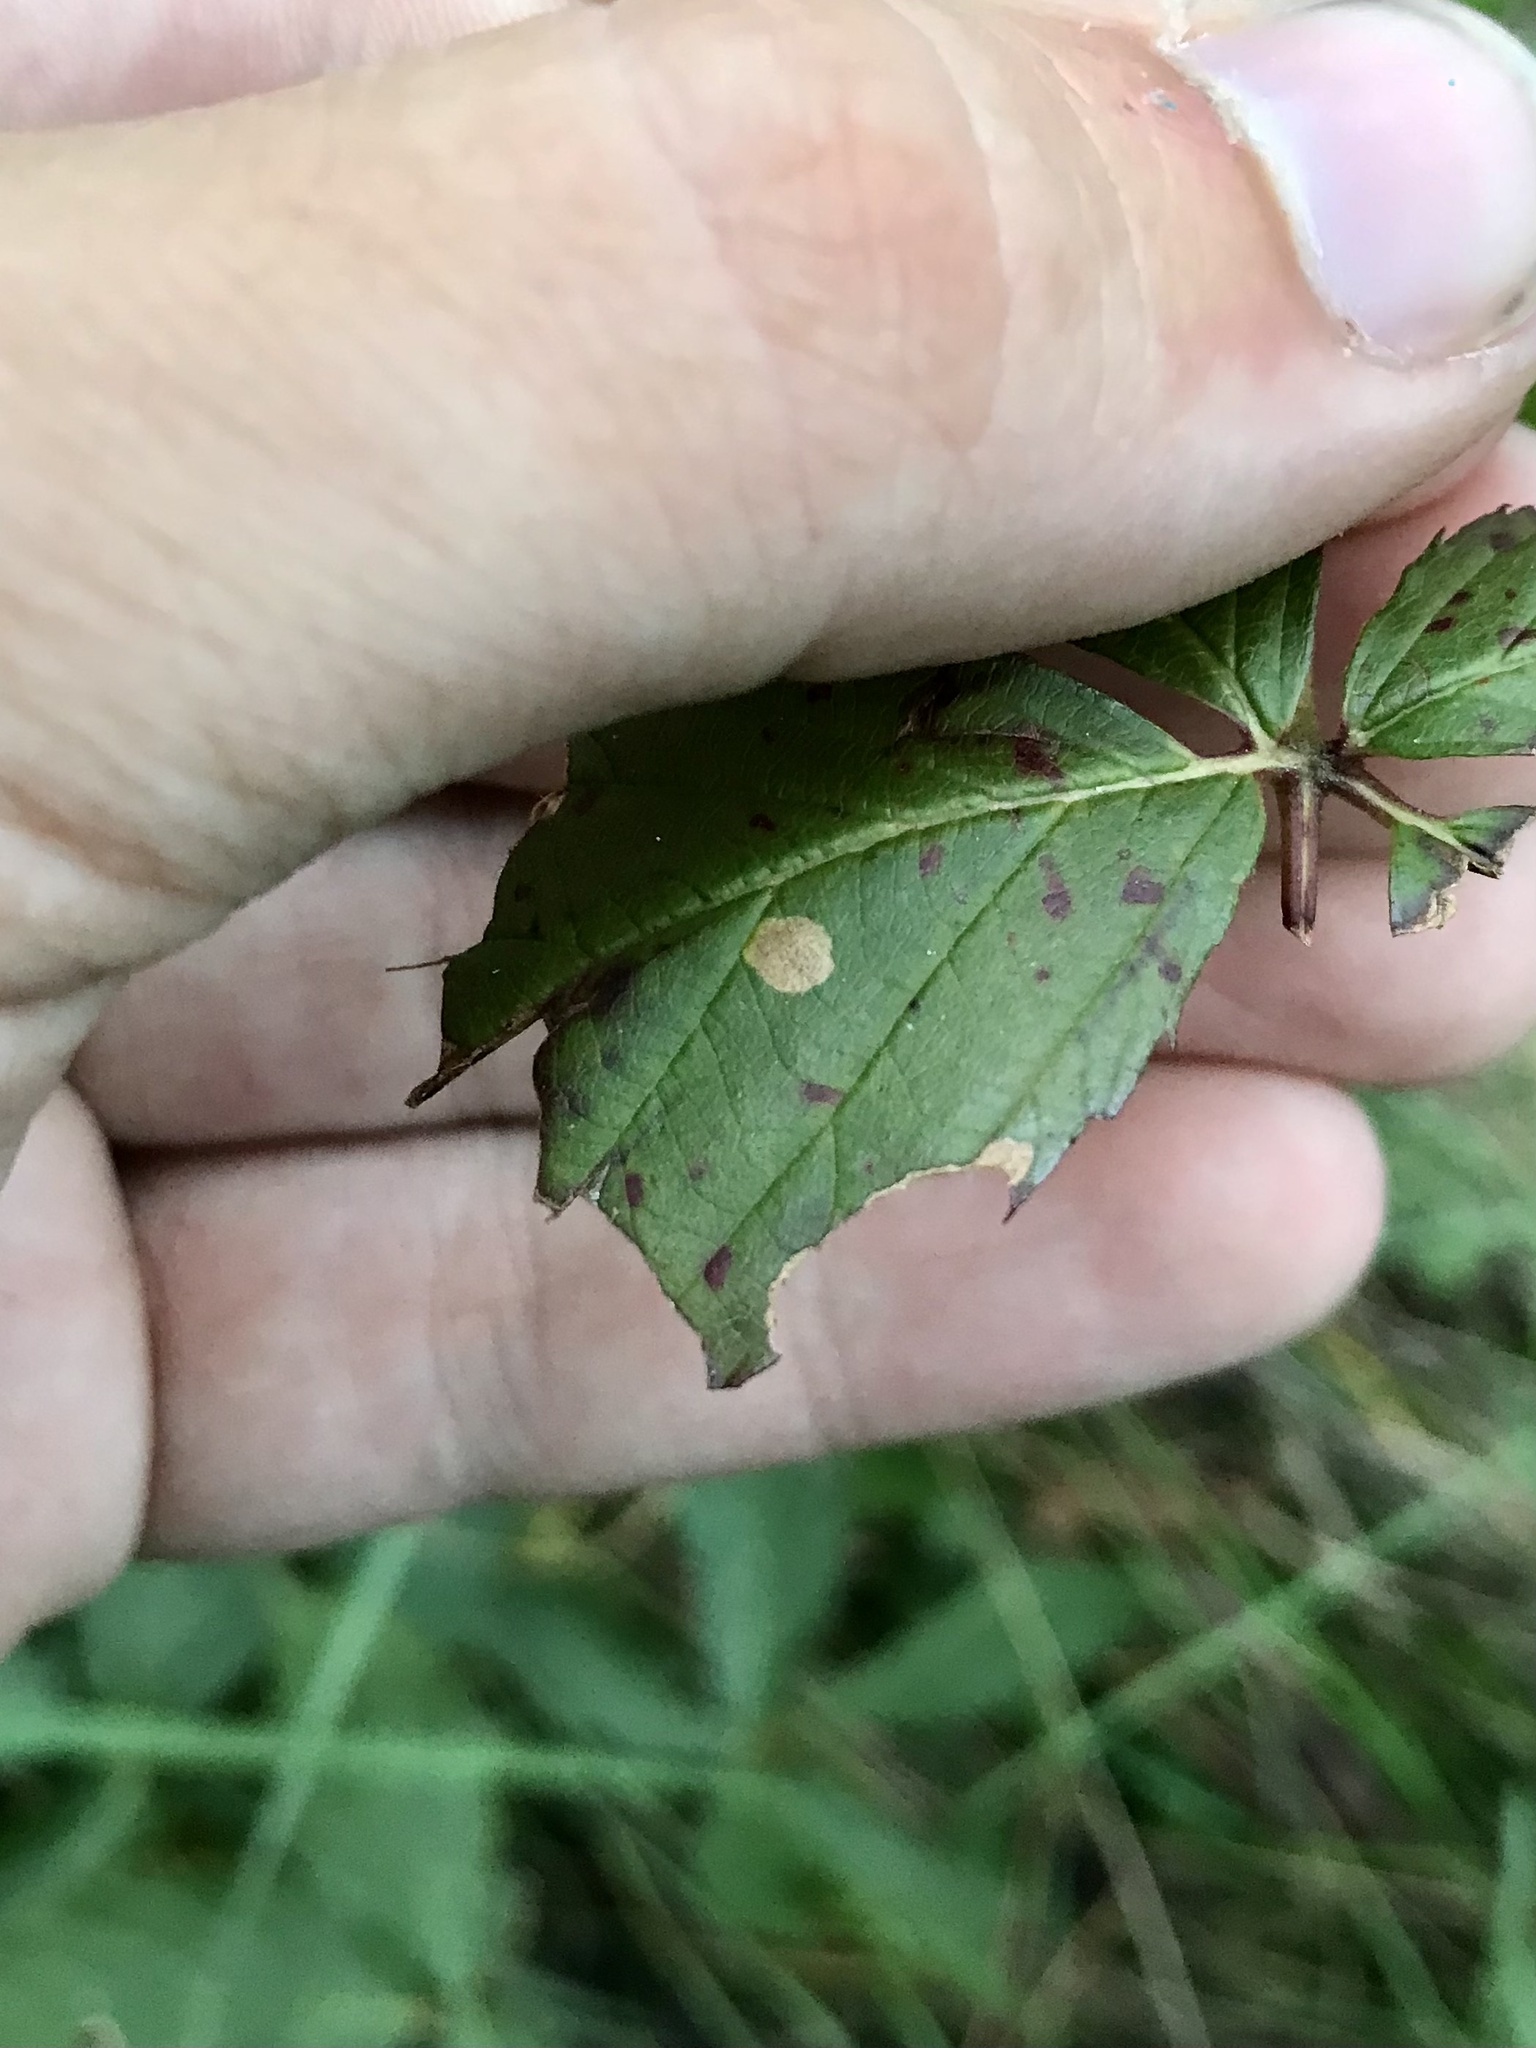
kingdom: Animalia
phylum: Arthropoda
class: Insecta
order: Lepidoptera
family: Coleophoridae
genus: Coleophora
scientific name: Coleophora cretaticostella
